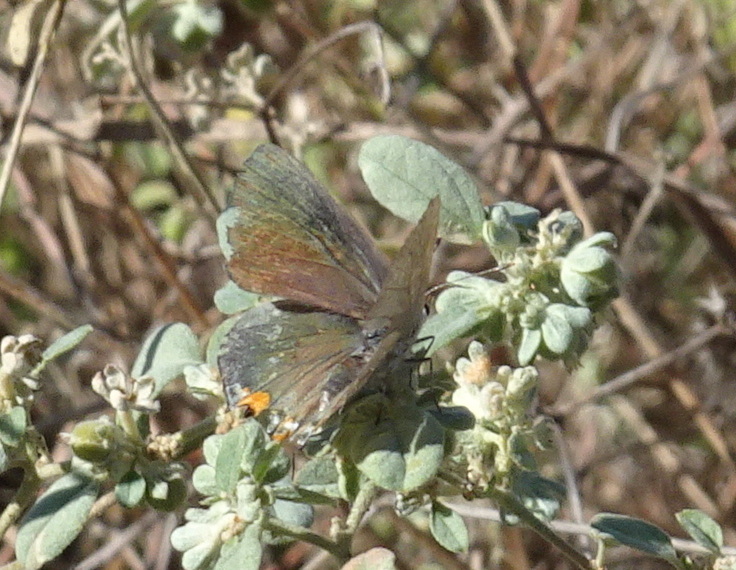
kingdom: Animalia
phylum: Arthropoda
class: Insecta
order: Lepidoptera
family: Lycaenidae
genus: Strymon
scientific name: Strymon melinus
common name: Gray hairstreak
